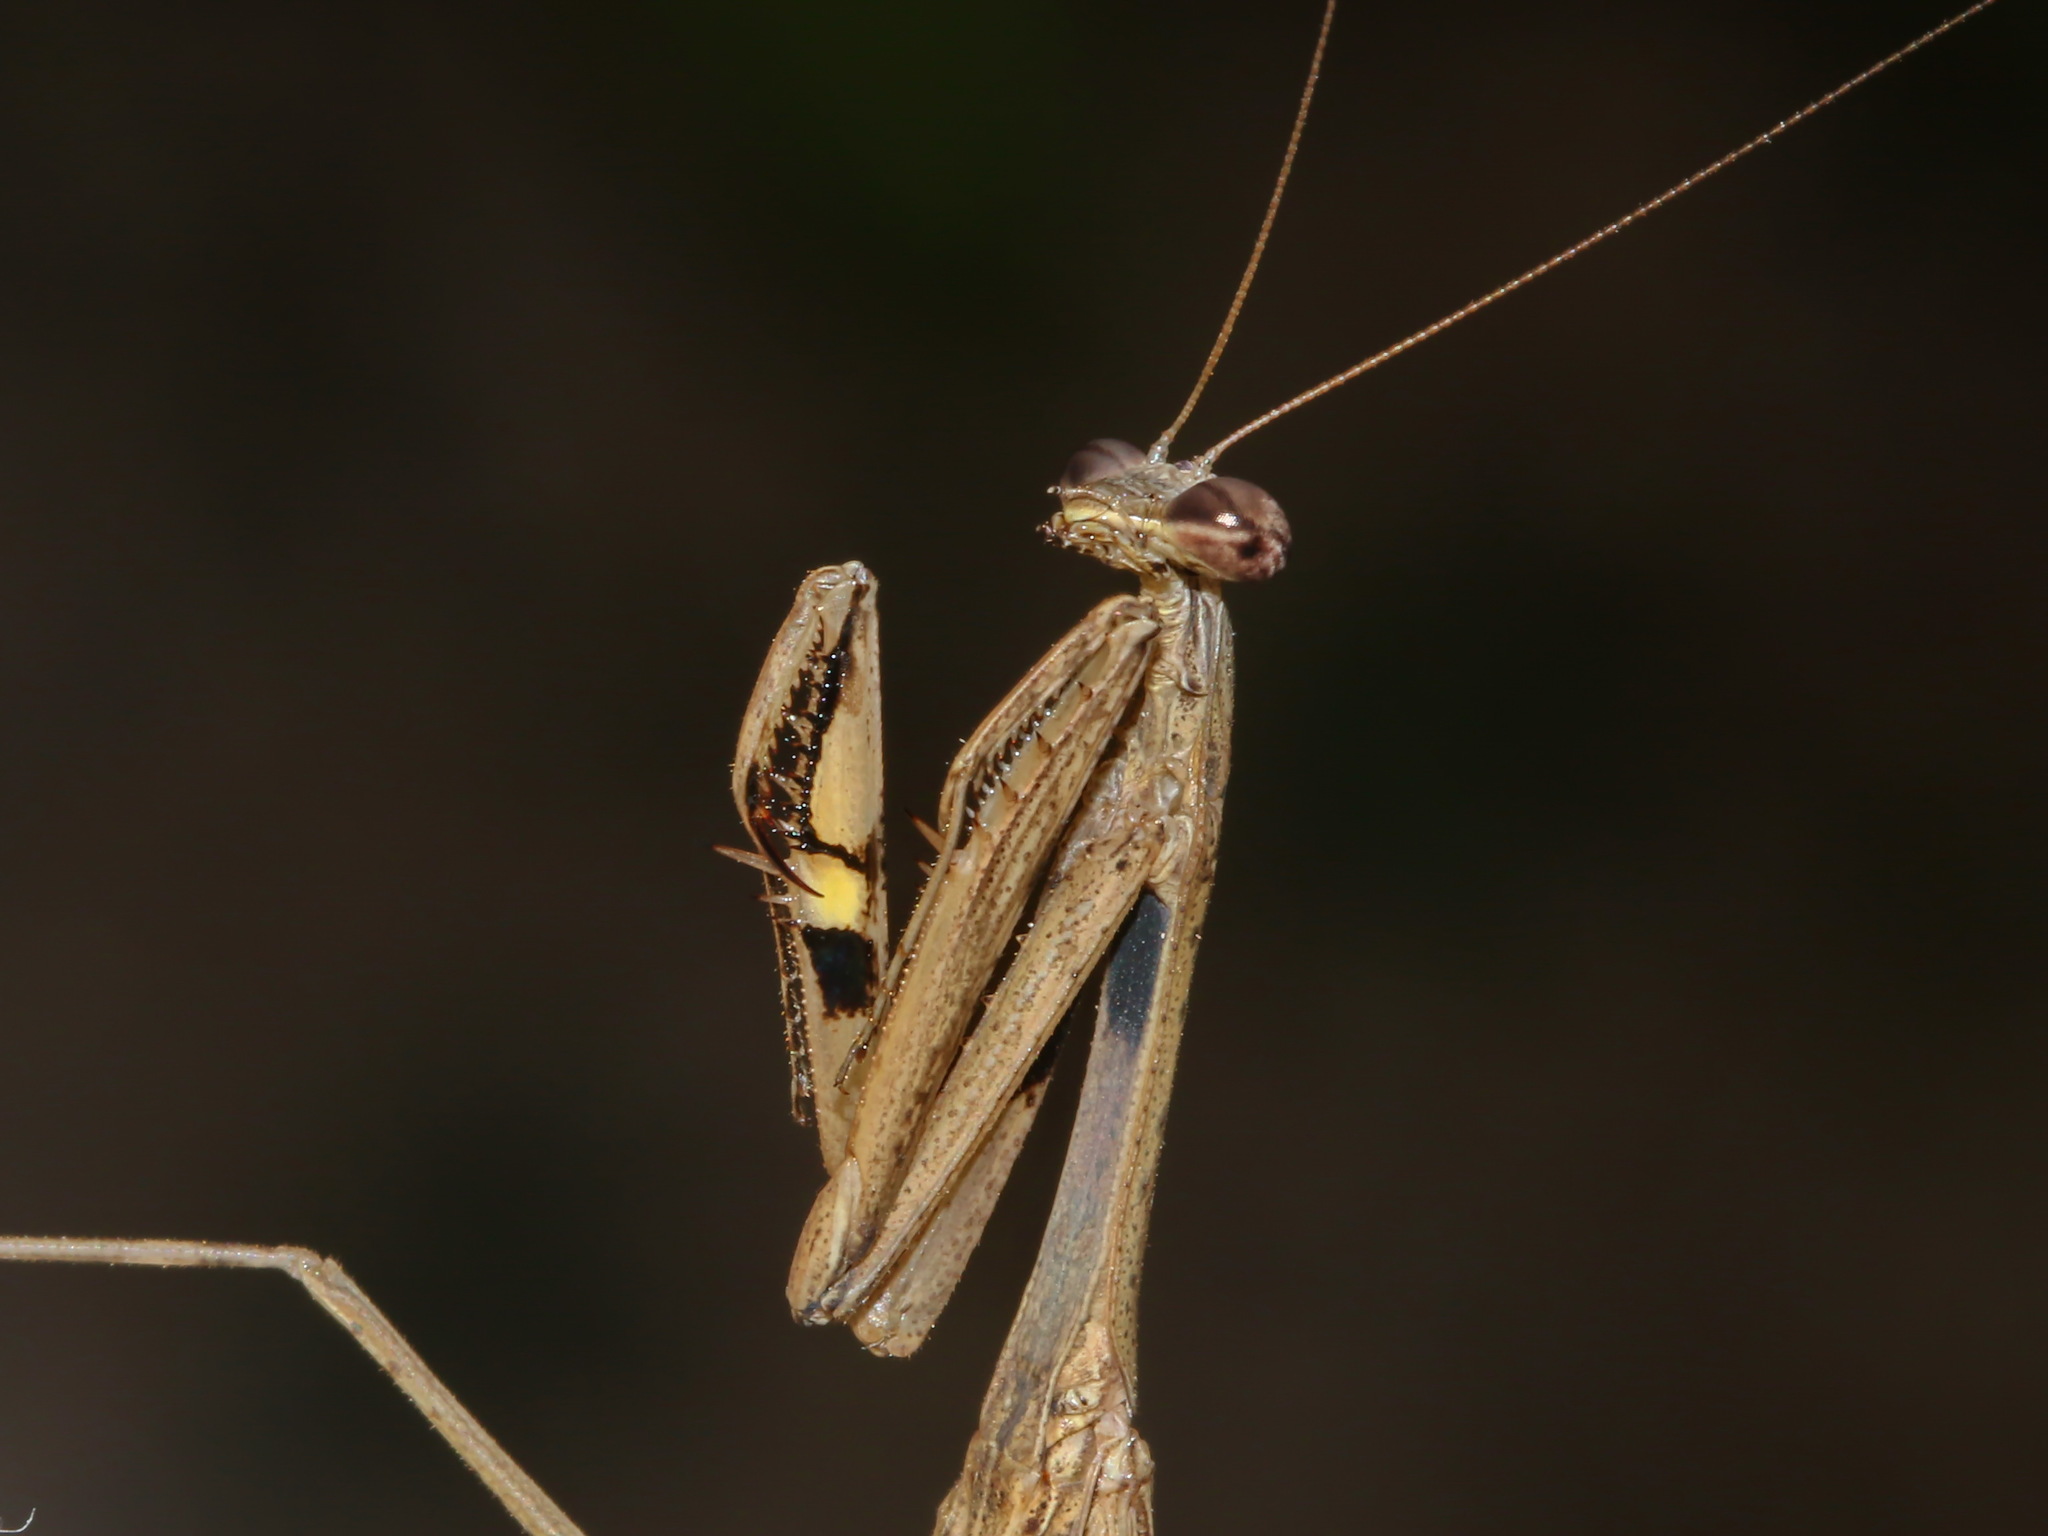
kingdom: Animalia
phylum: Arthropoda
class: Insecta
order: Mantodea
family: Mantidae
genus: Statilia
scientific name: Statilia nemoralis
